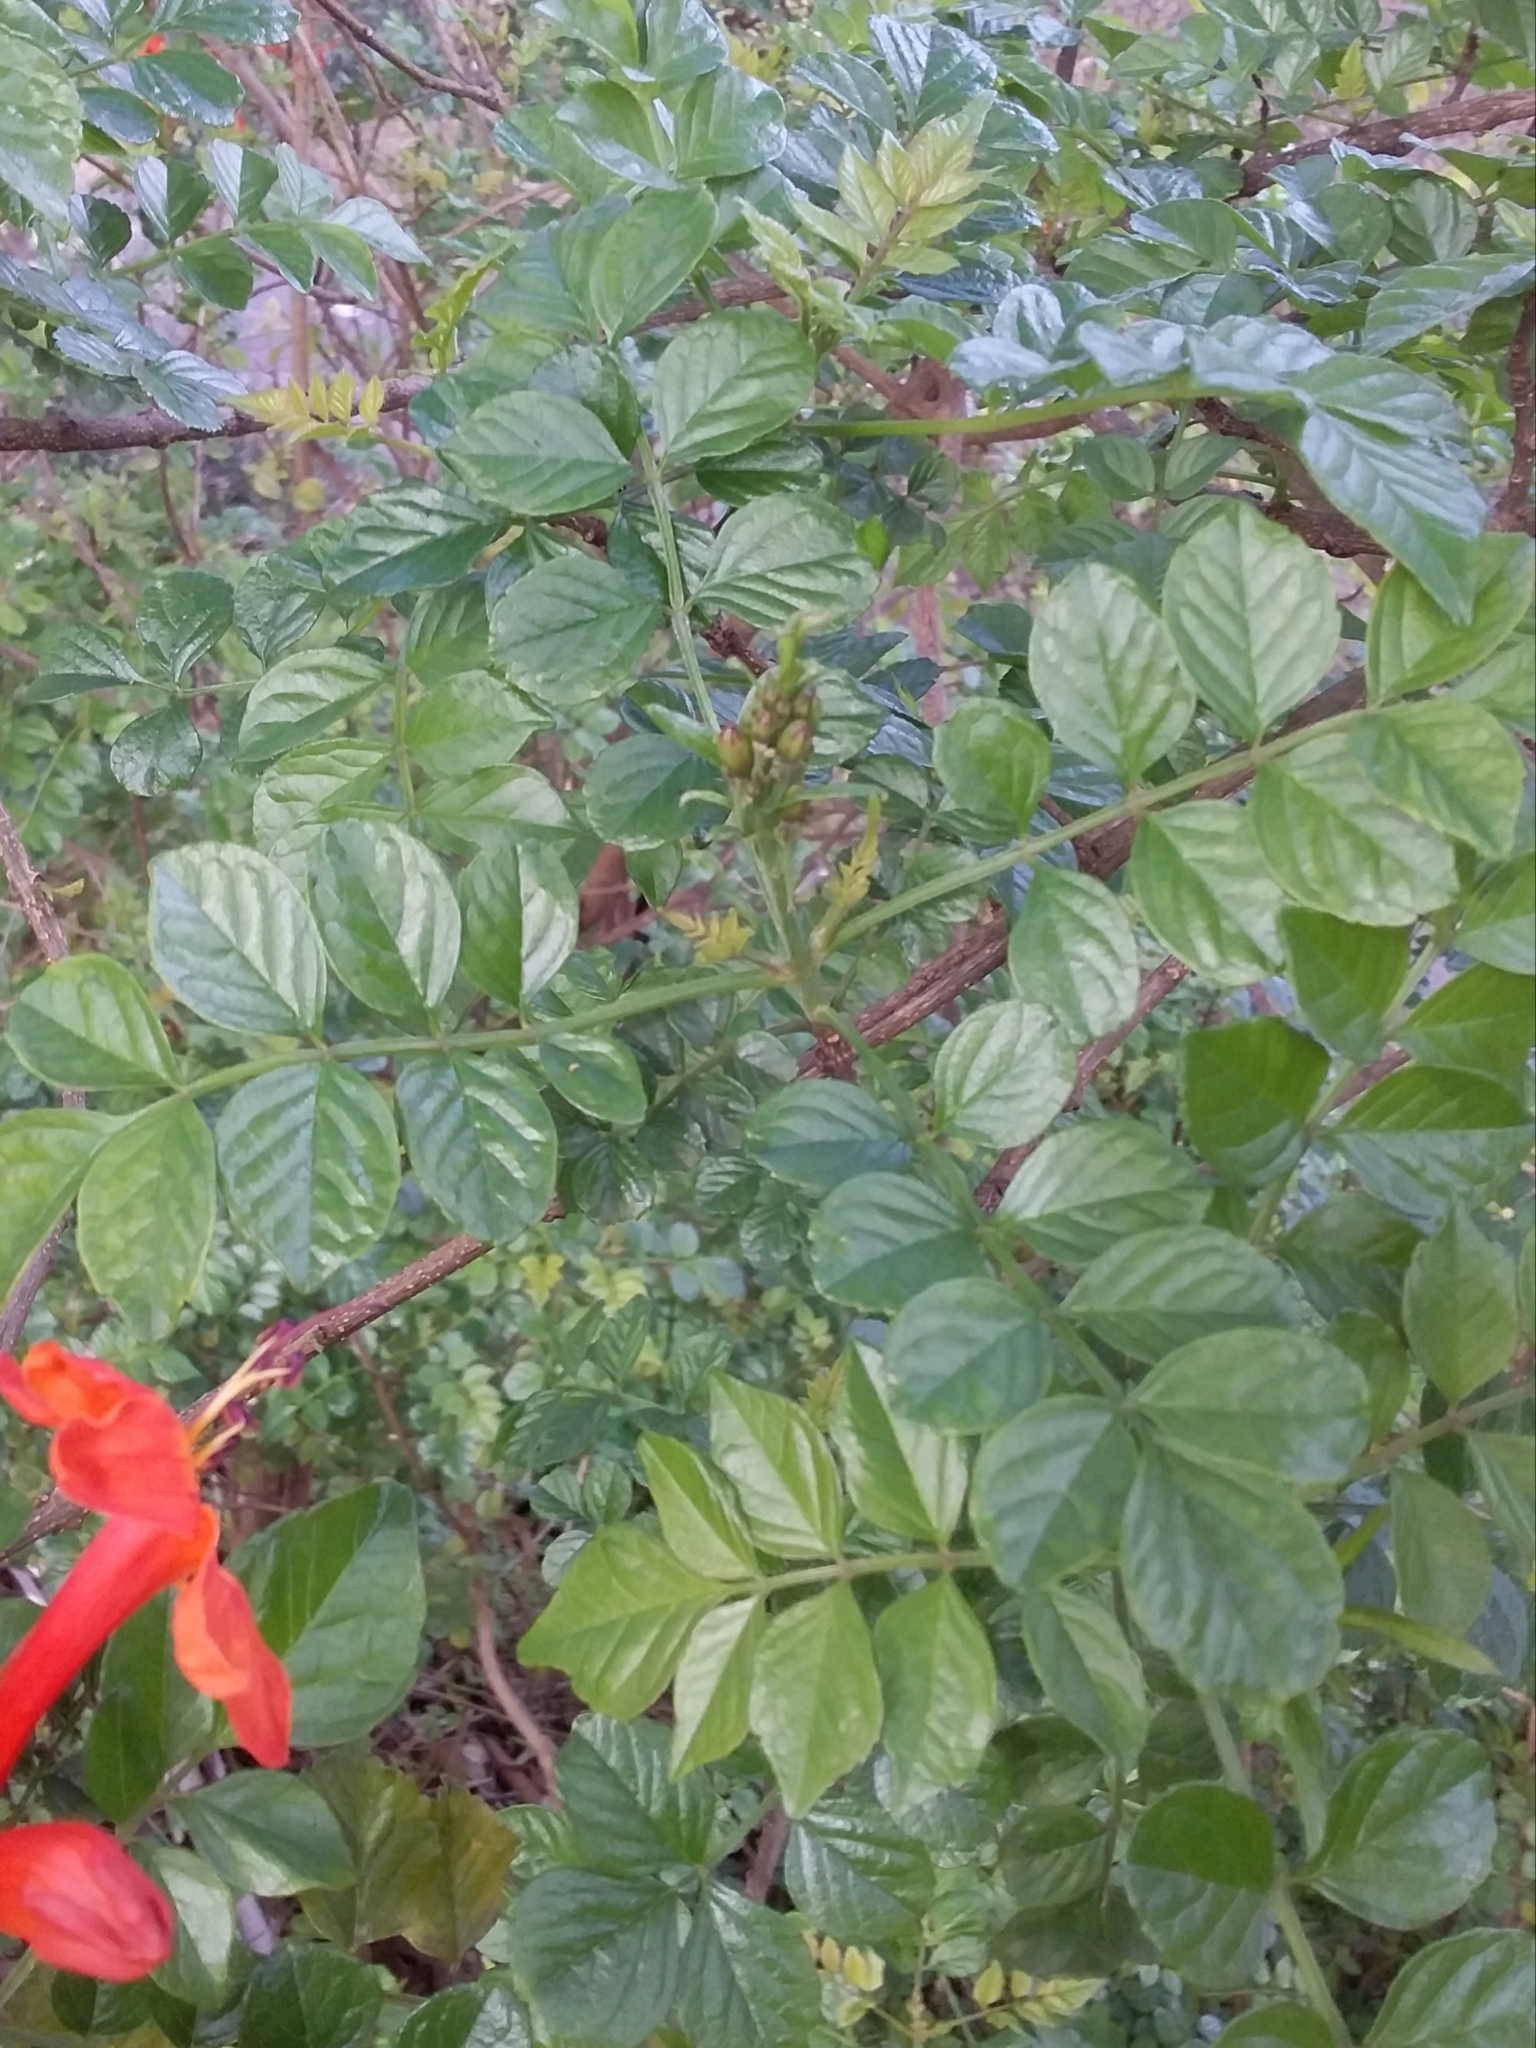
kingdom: Plantae
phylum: Tracheophyta
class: Magnoliopsida
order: Lamiales
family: Bignoniaceae
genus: Tecomaria
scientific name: Tecomaria capensis
